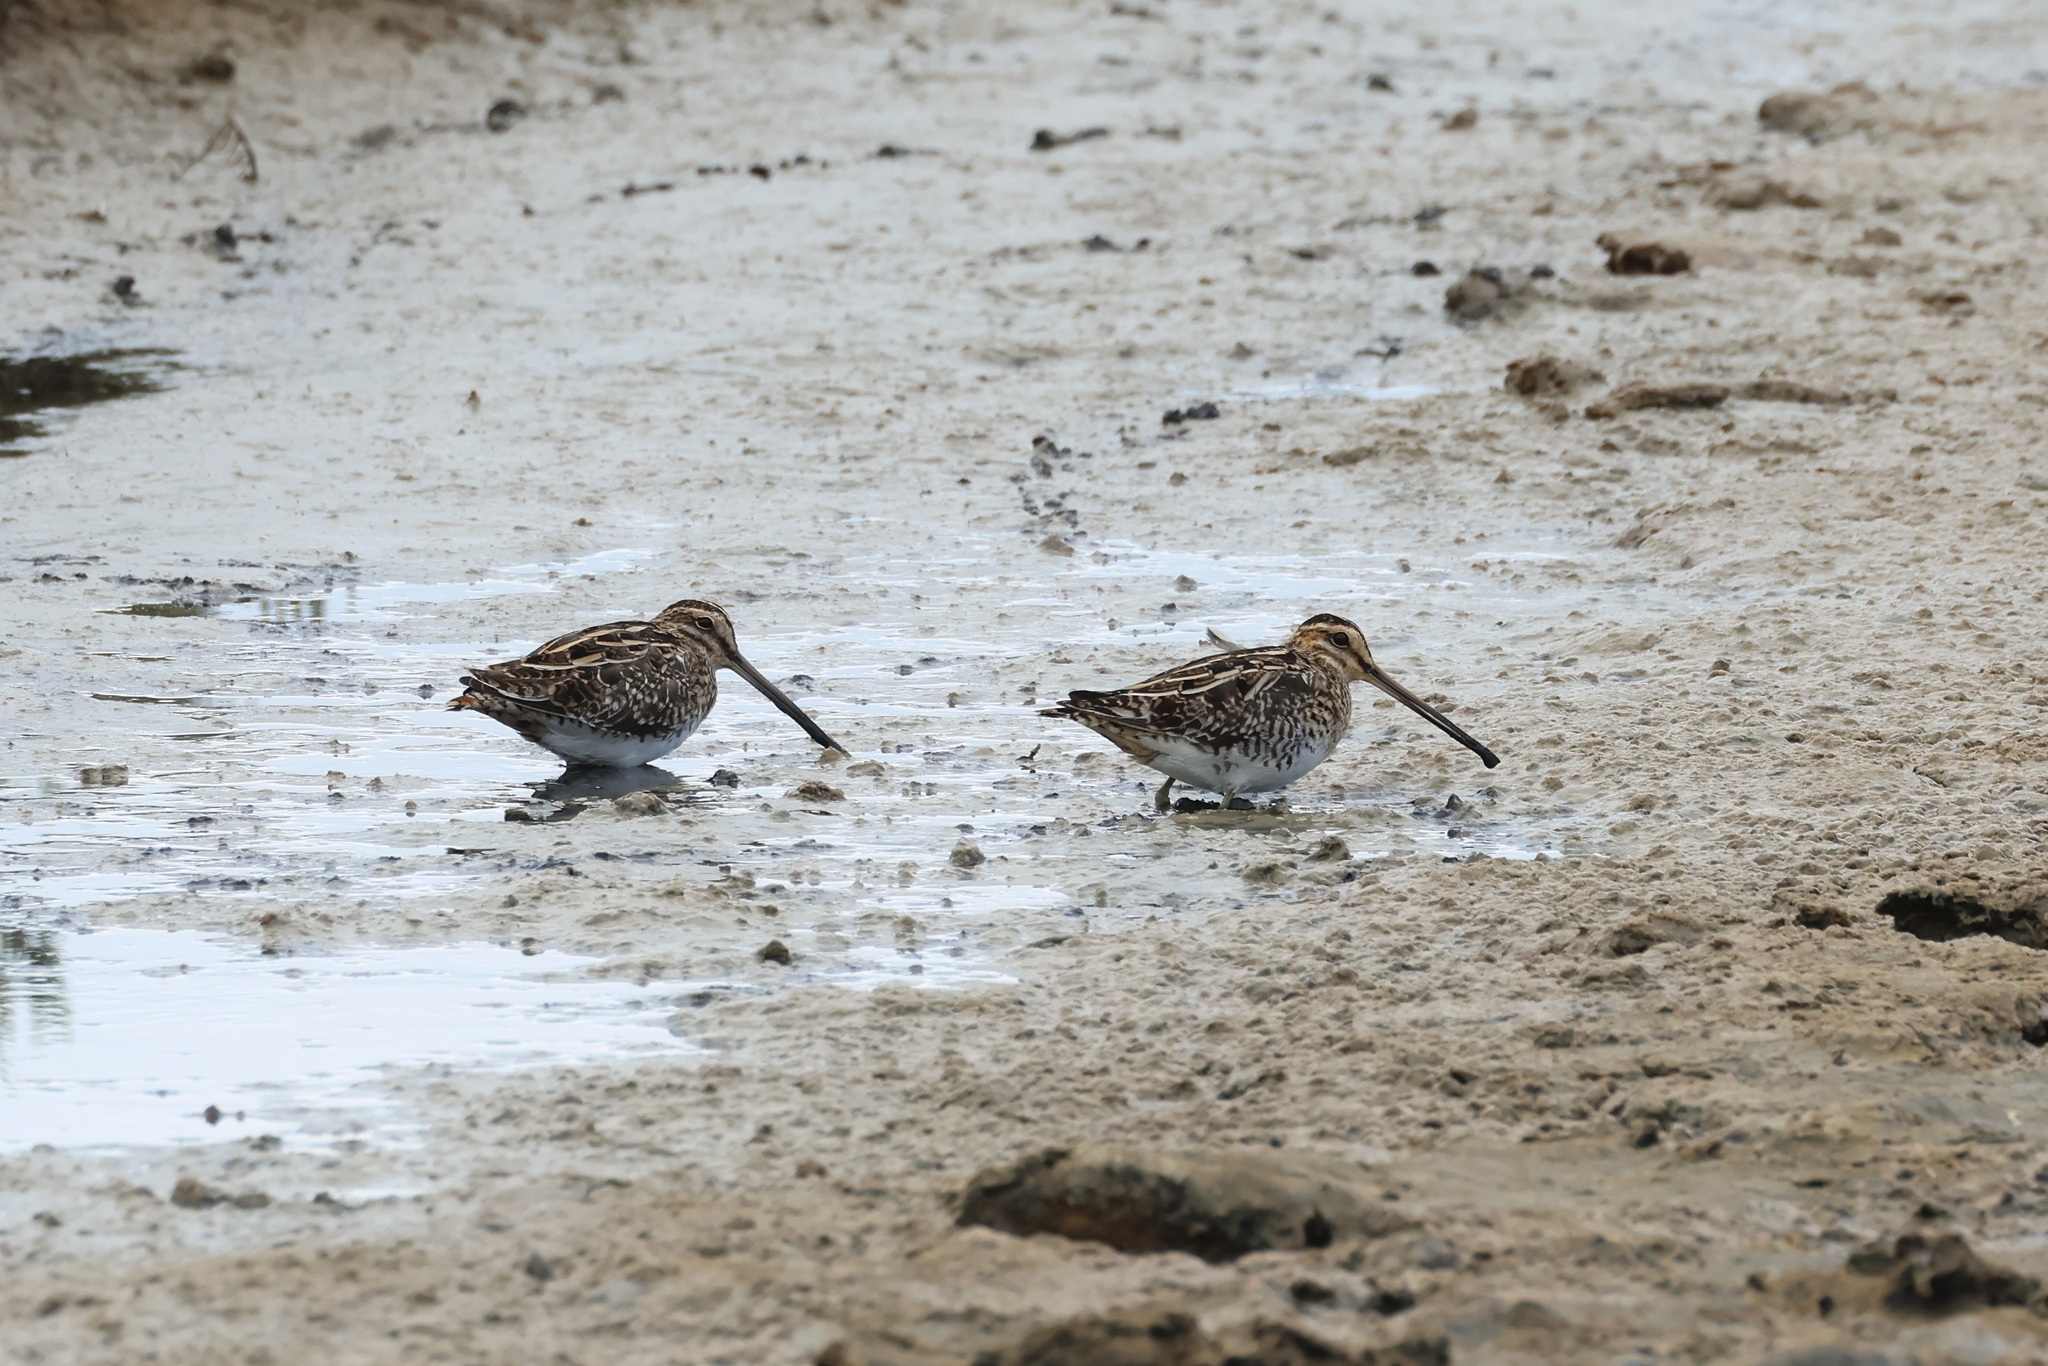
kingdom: Animalia
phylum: Chordata
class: Aves
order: Charadriiformes
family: Scolopacidae
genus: Gallinago
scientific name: Gallinago gallinago
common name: Common snipe
